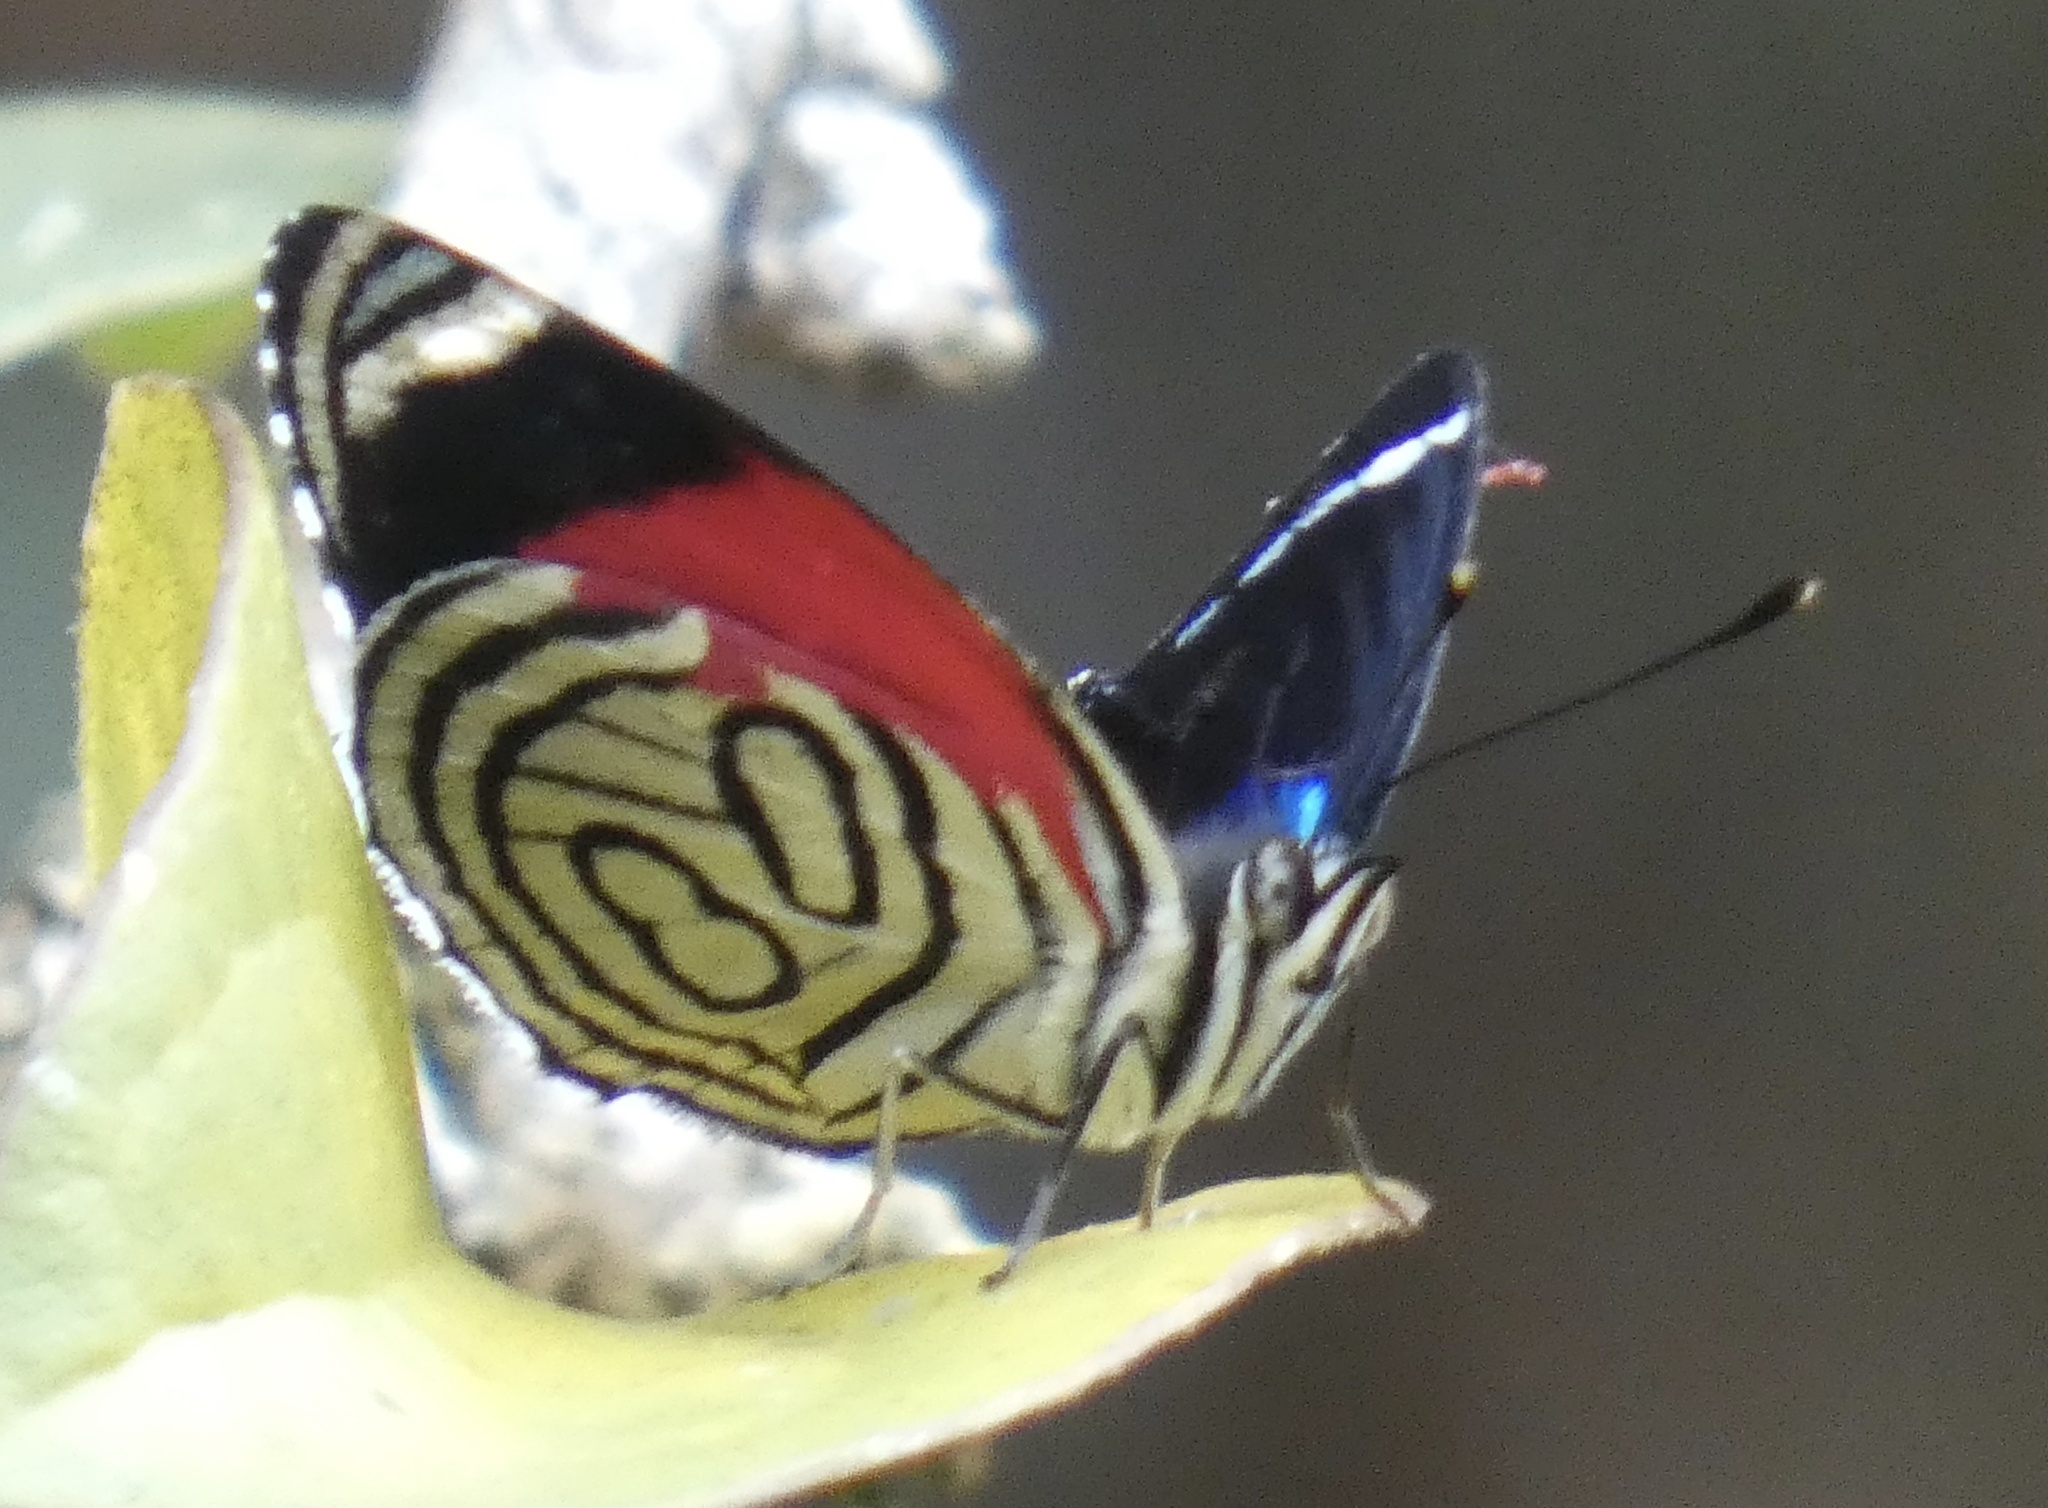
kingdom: Animalia
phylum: Arthropoda
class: Insecta
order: Lepidoptera
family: Nymphalidae
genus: Diaethria
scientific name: Diaethria candrena
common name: Number eighty
